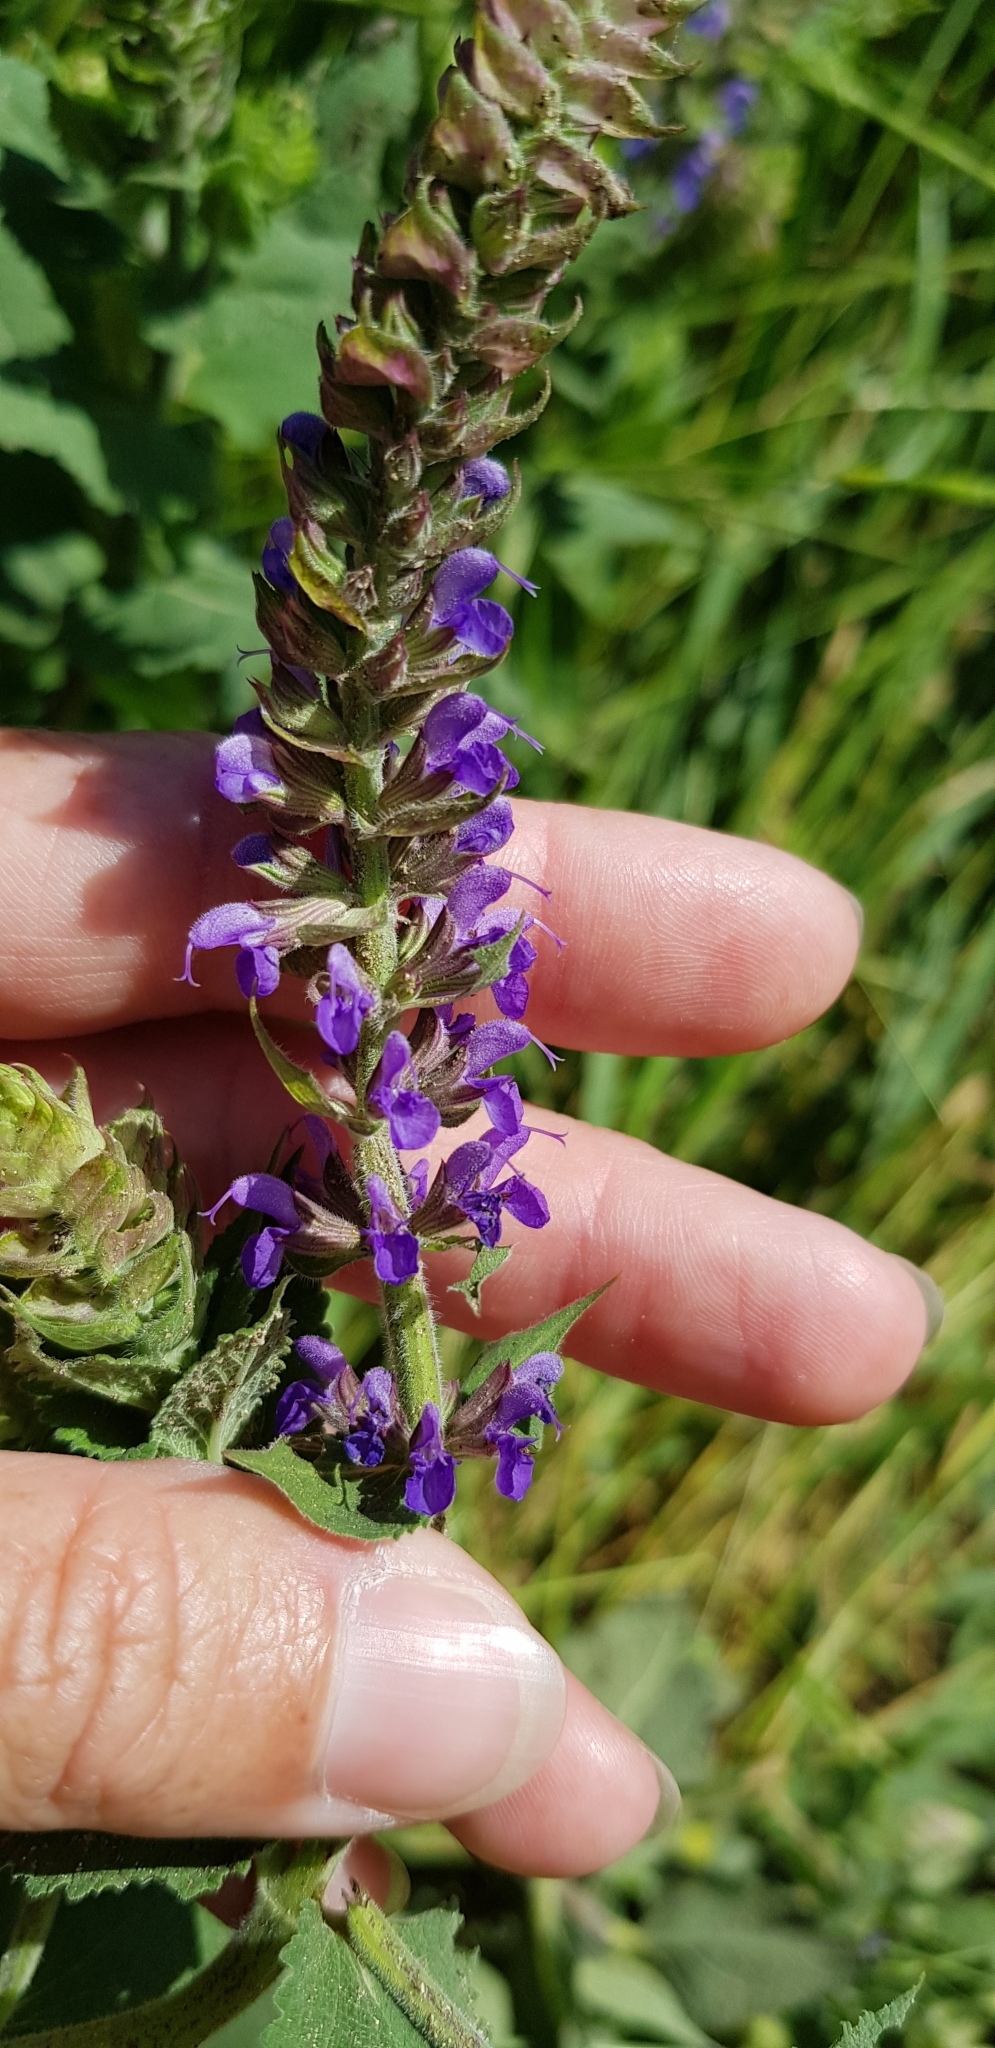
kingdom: Plantae
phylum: Tracheophyta
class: Magnoliopsida
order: Lamiales
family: Lamiaceae
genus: Salvia
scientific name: Salvia nemorosa
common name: Balkan clary
